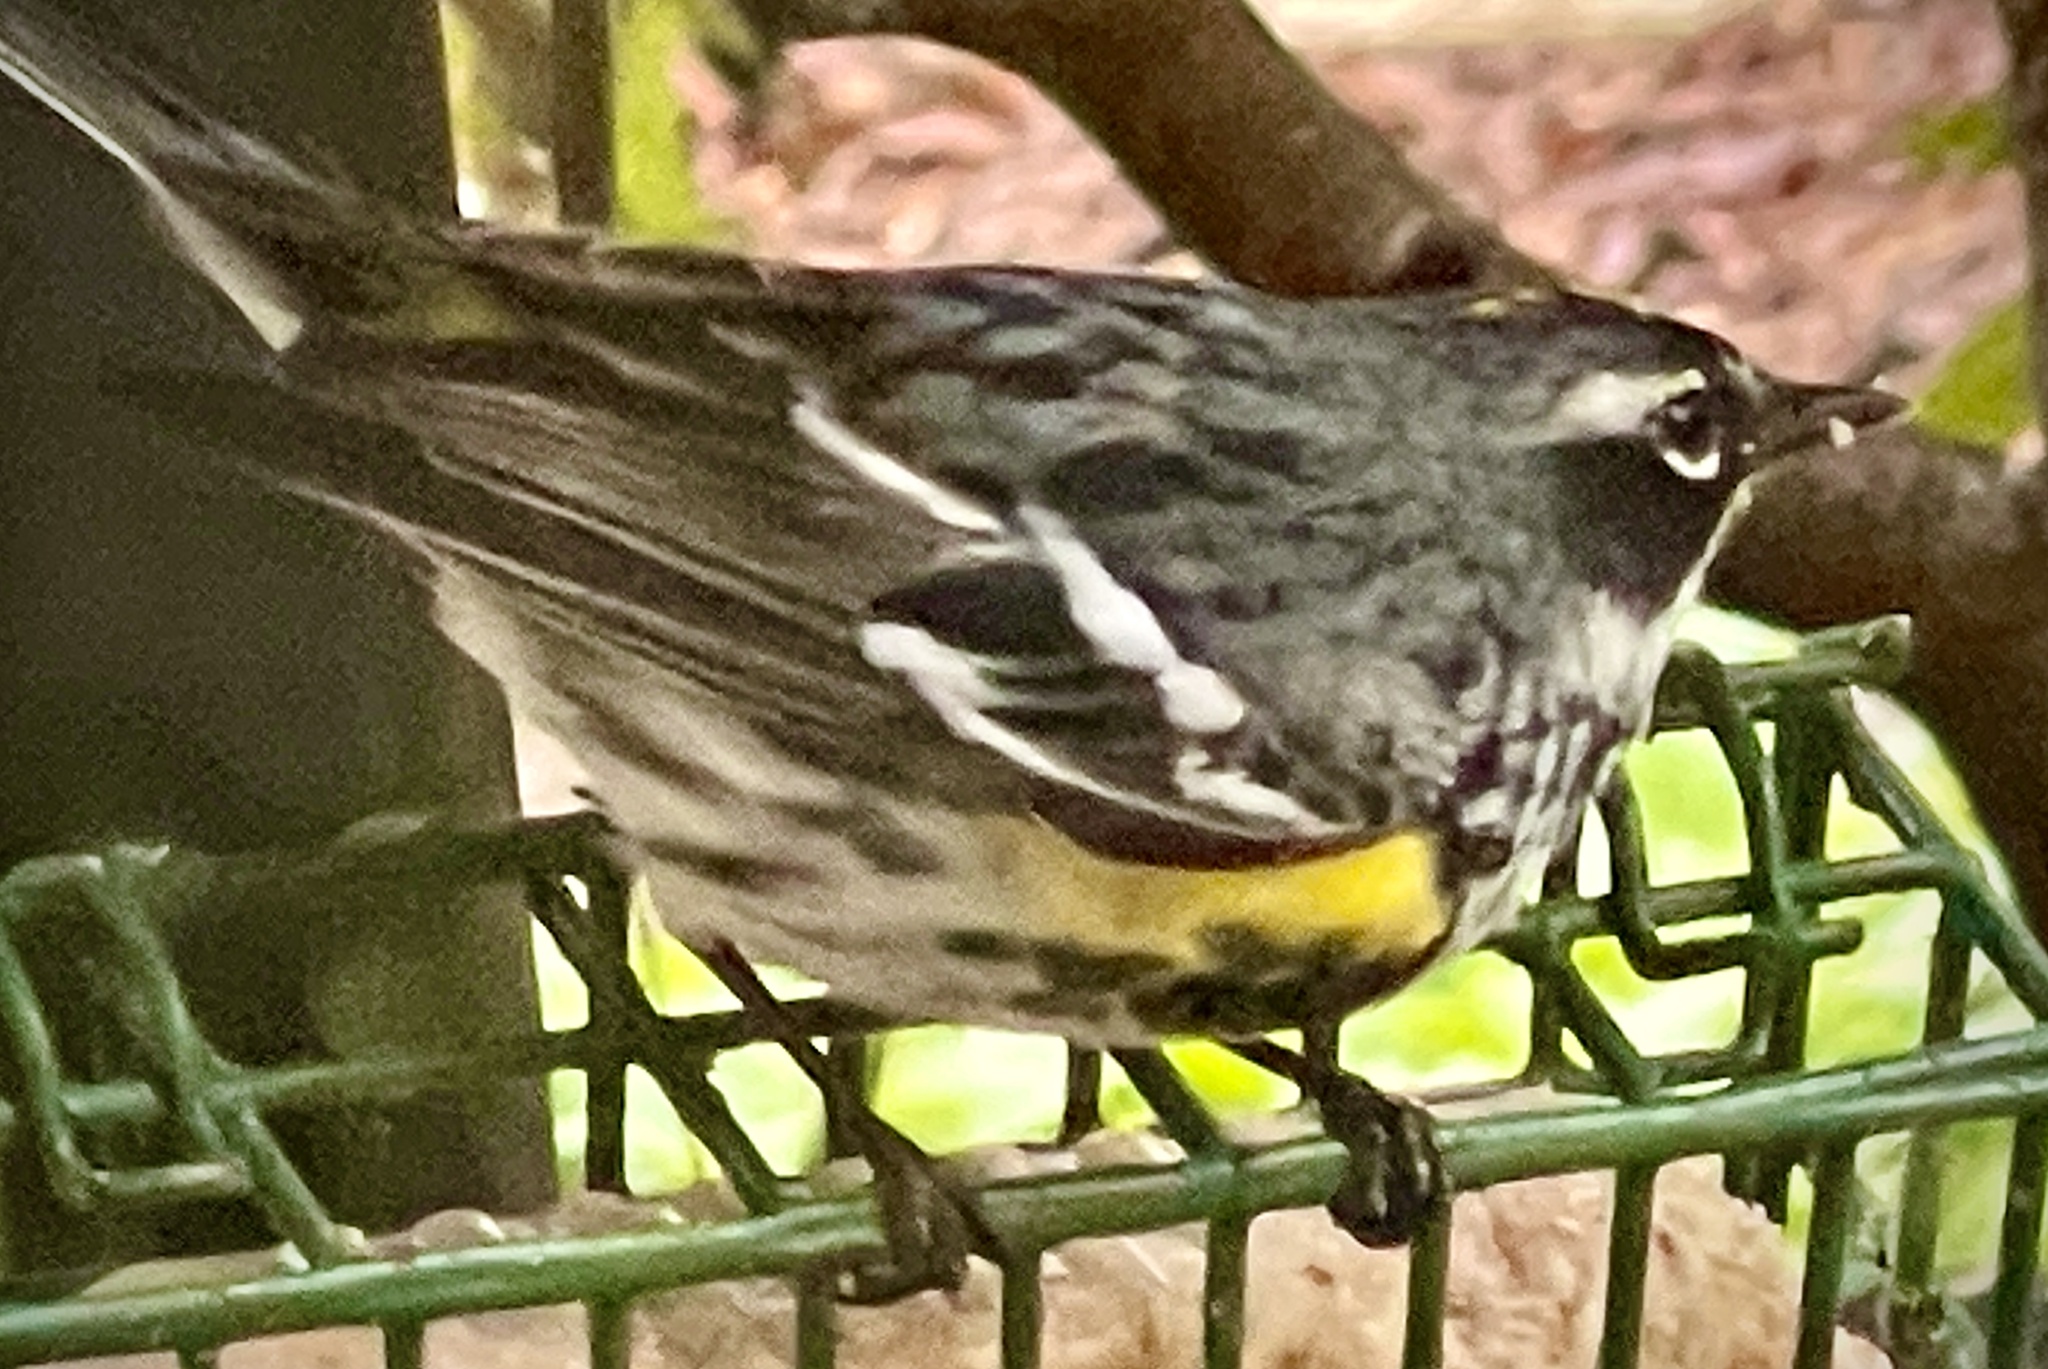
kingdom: Animalia
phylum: Chordata
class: Aves
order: Passeriformes
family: Parulidae
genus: Setophaga
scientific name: Setophaga coronata
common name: Myrtle warbler
